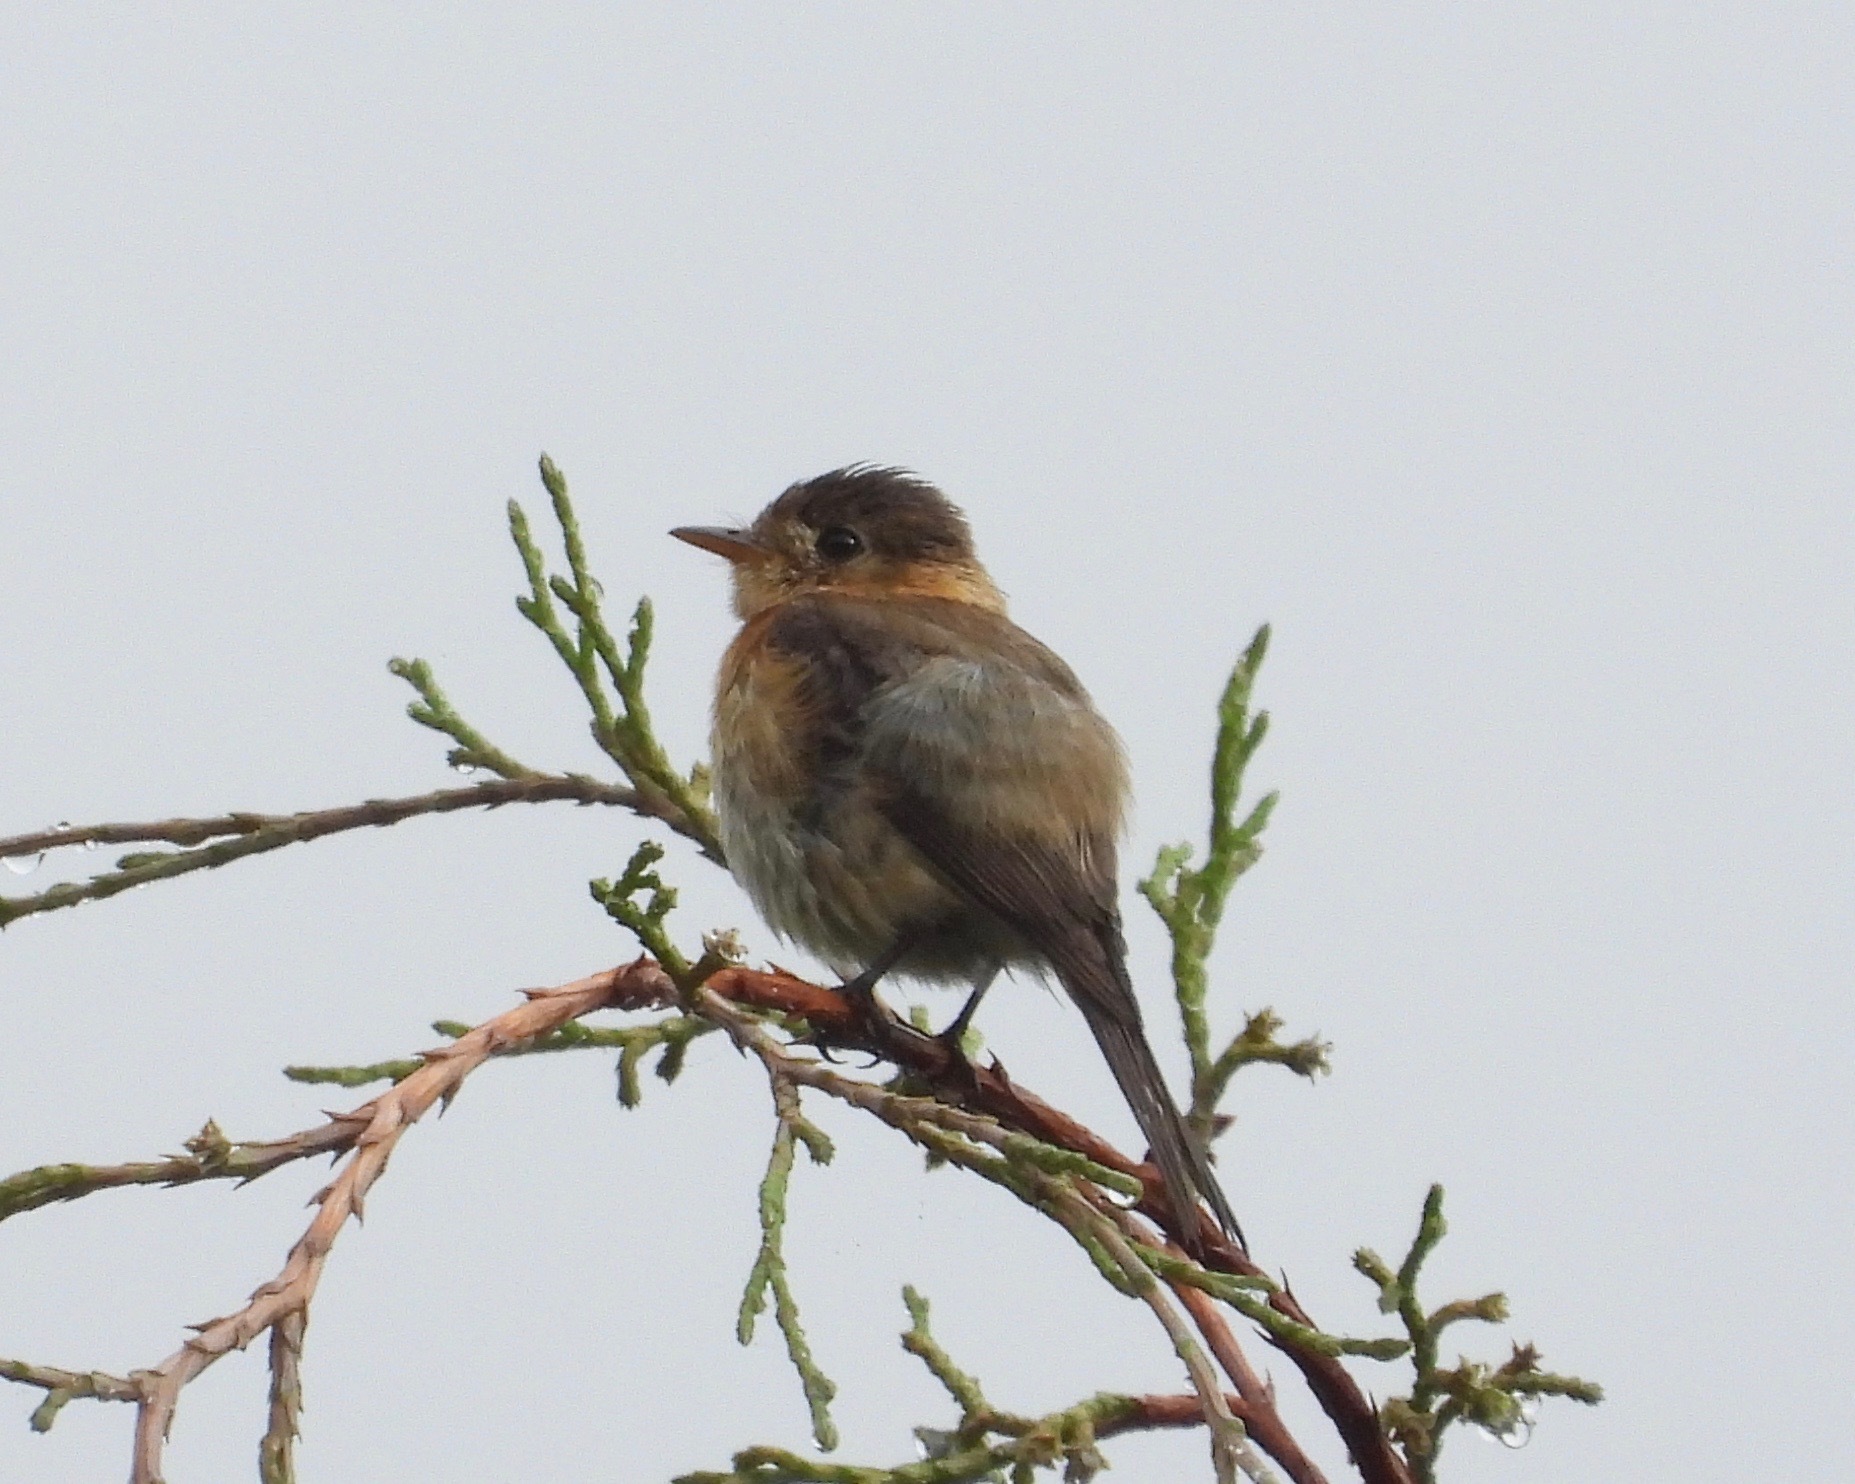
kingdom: Animalia
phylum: Chordata
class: Aves
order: Passeriformes
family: Tyrannidae
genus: Empidonax
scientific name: Empidonax fulvifrons
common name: Buff-breasted flycatcher
